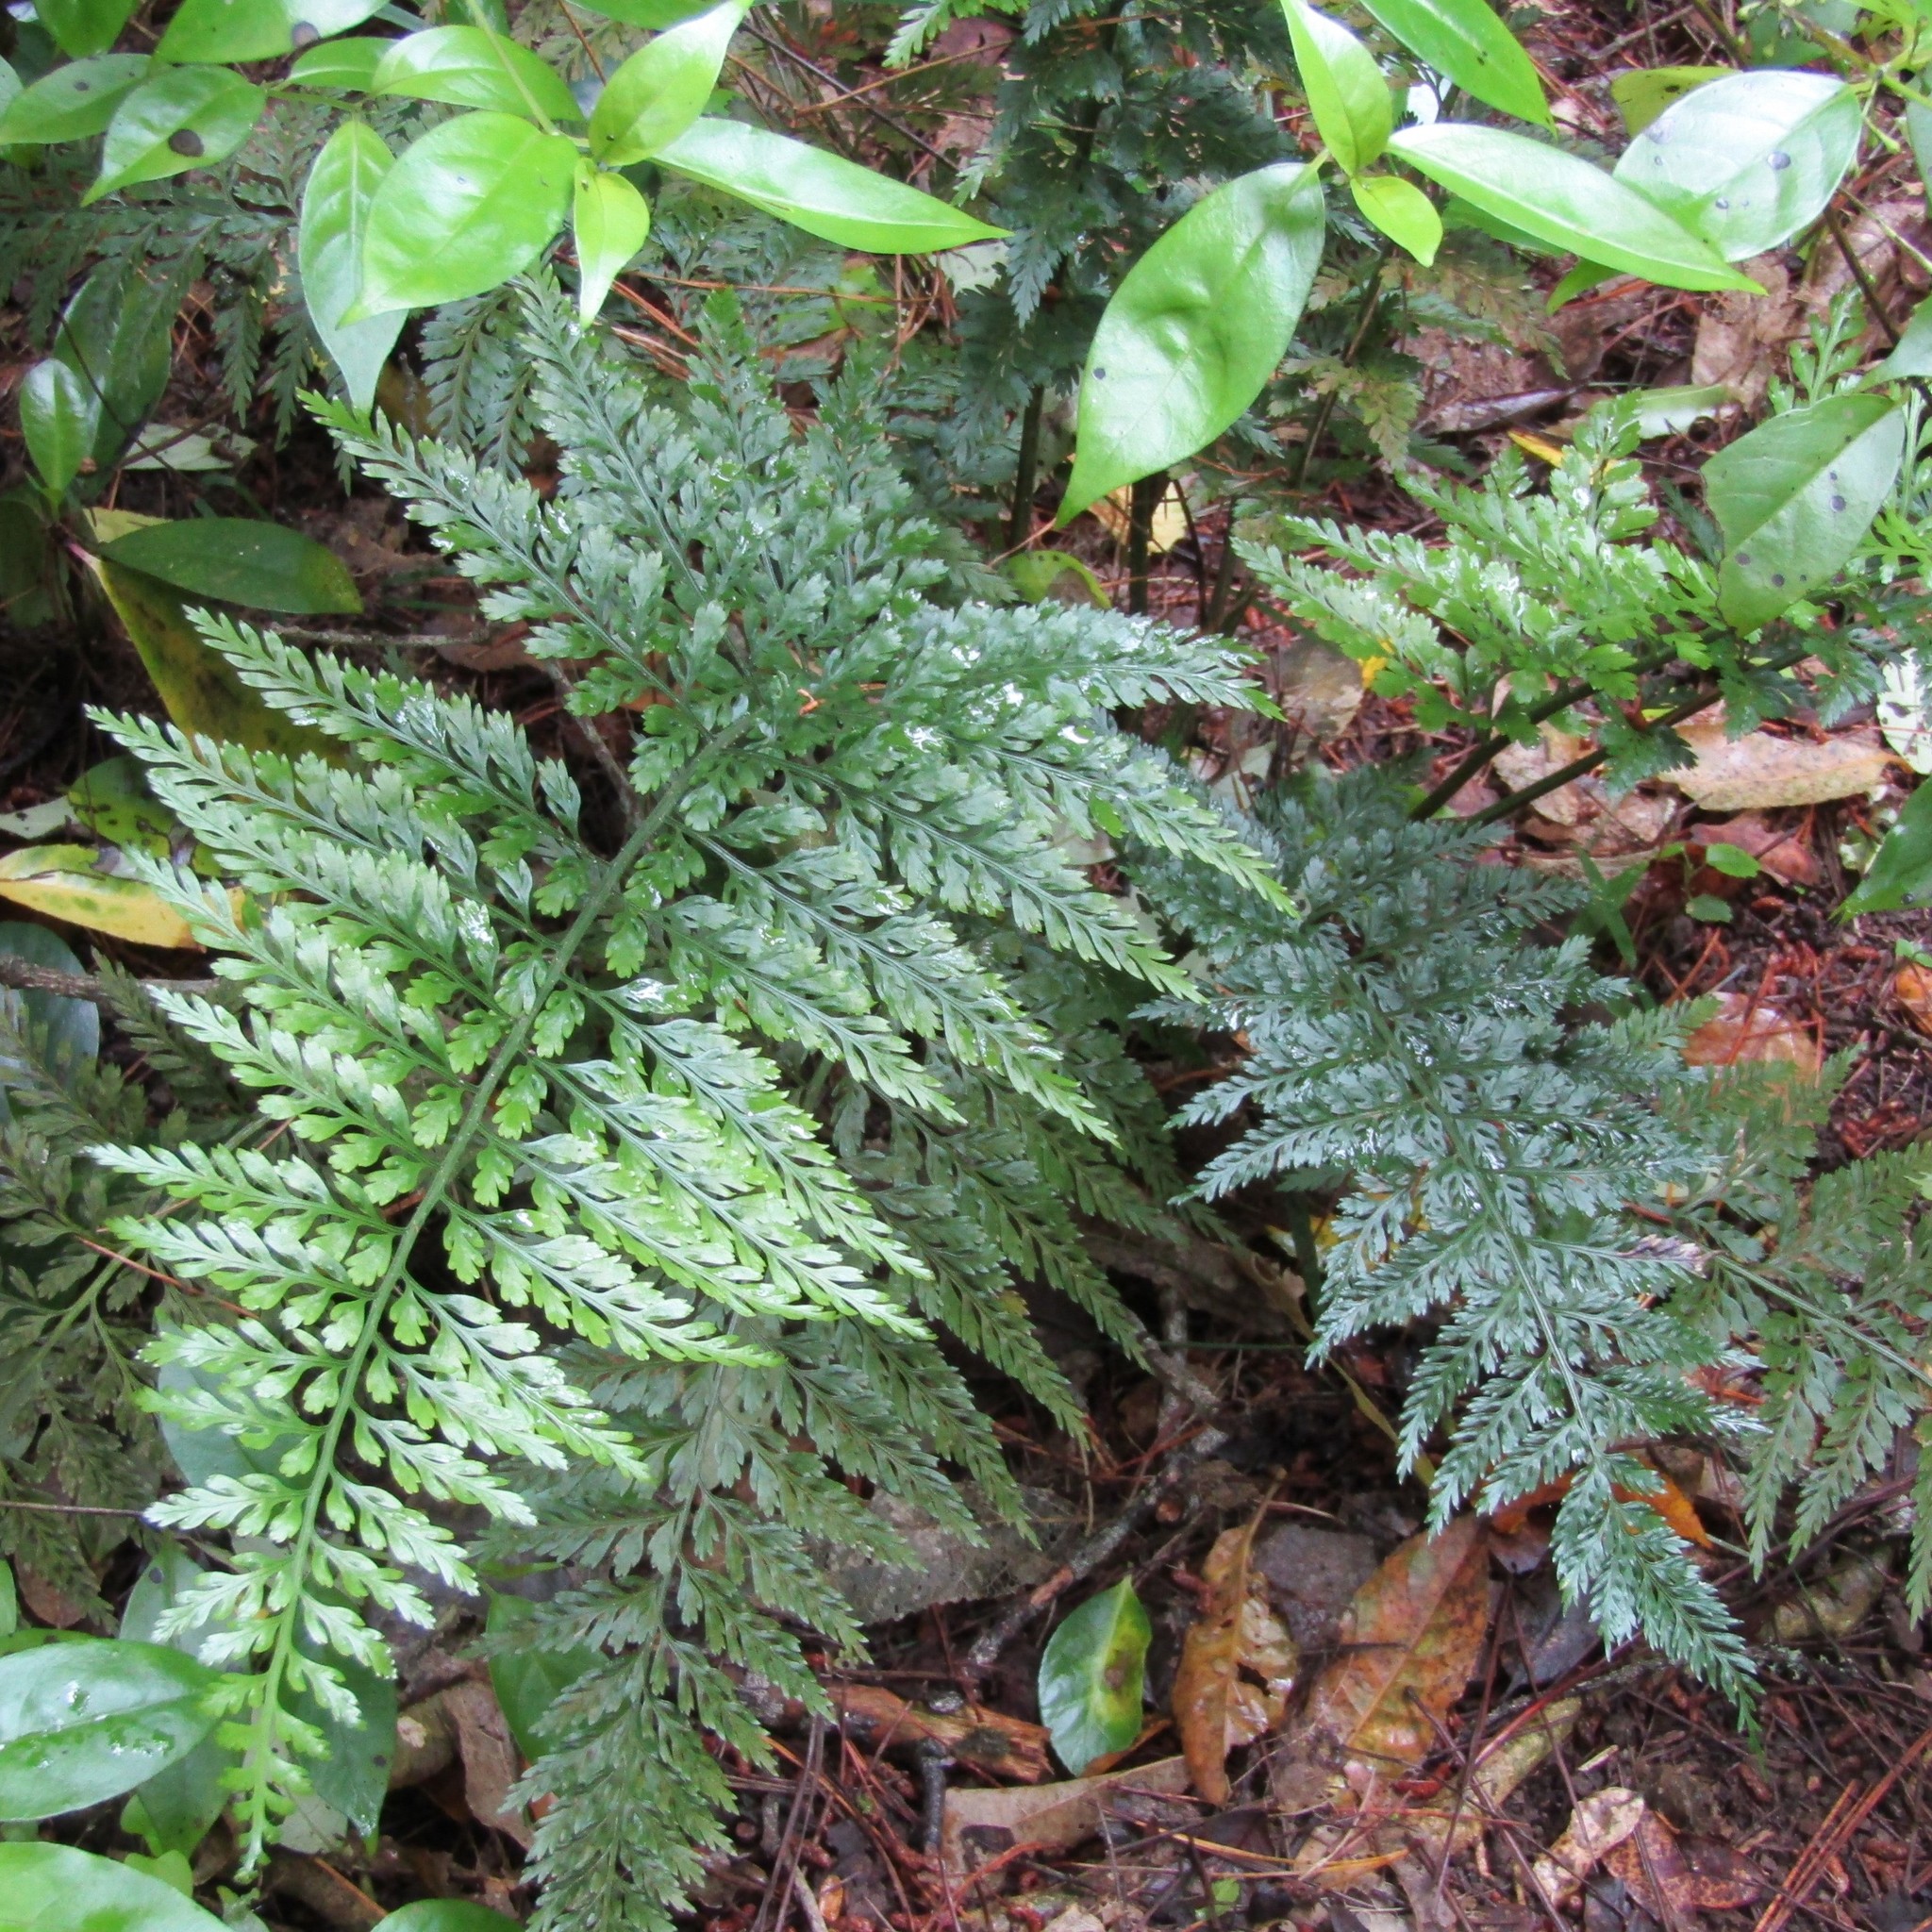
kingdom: Plantae
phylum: Tracheophyta
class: Polypodiopsida
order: Polypodiales
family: Aspleniaceae
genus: Asplenium
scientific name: Asplenium
